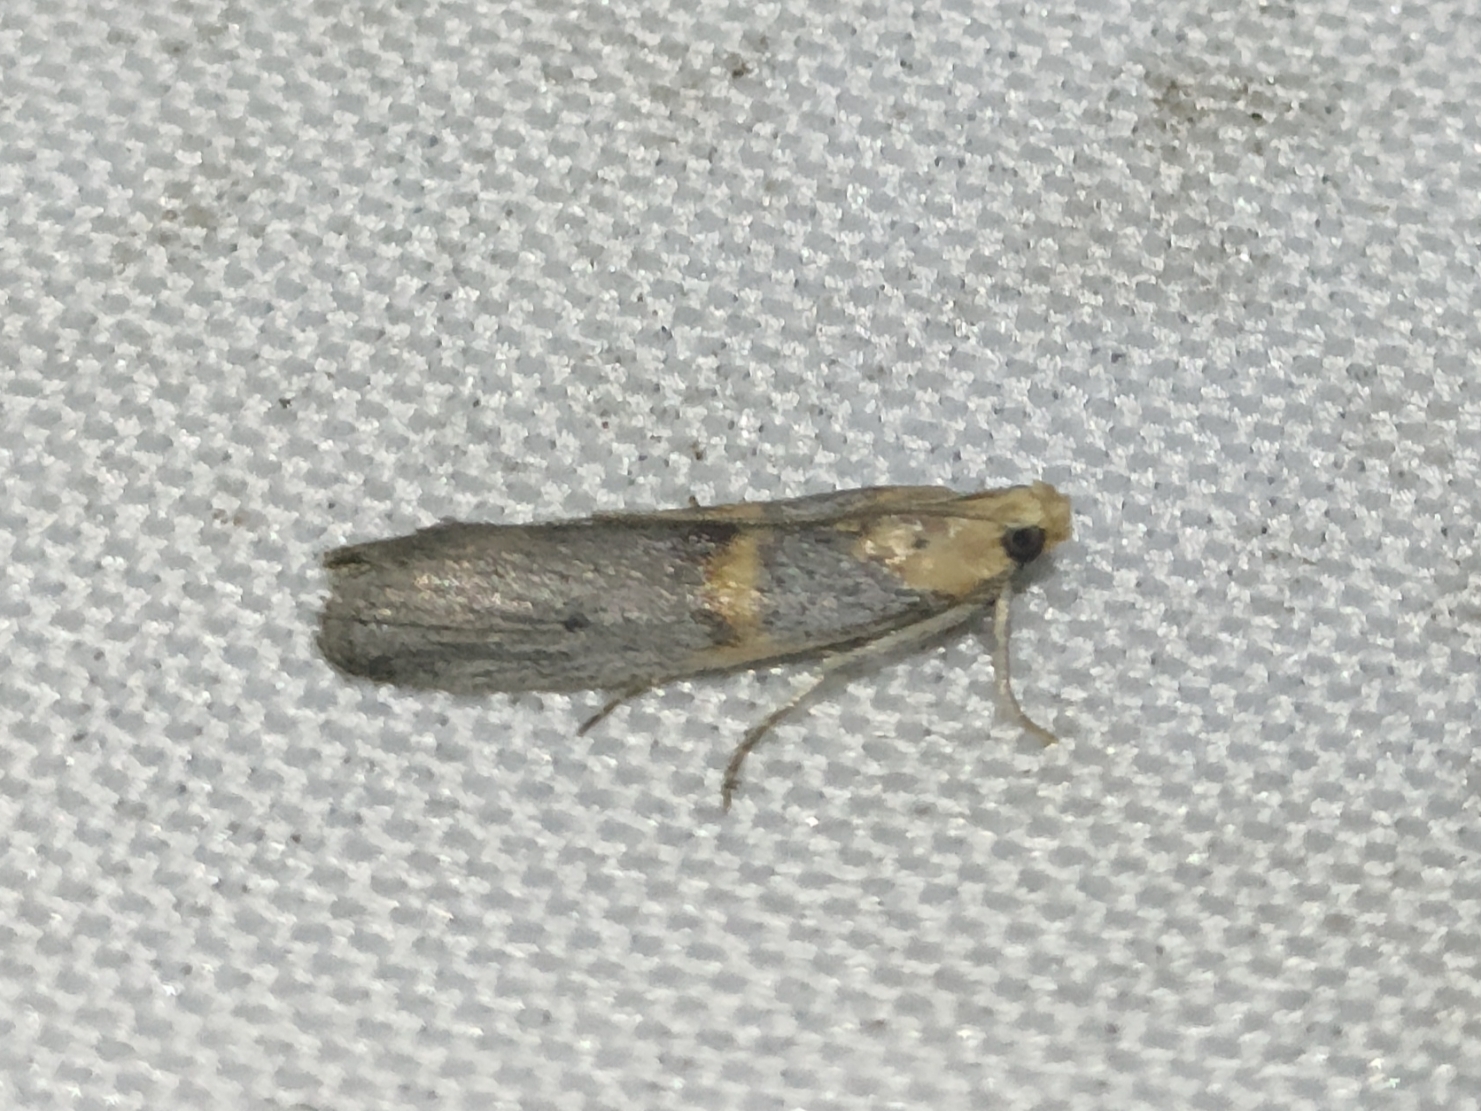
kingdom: Animalia
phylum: Arthropoda
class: Insecta
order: Lepidoptera
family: Pyralidae
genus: Oxybia
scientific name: Oxybia transversella
